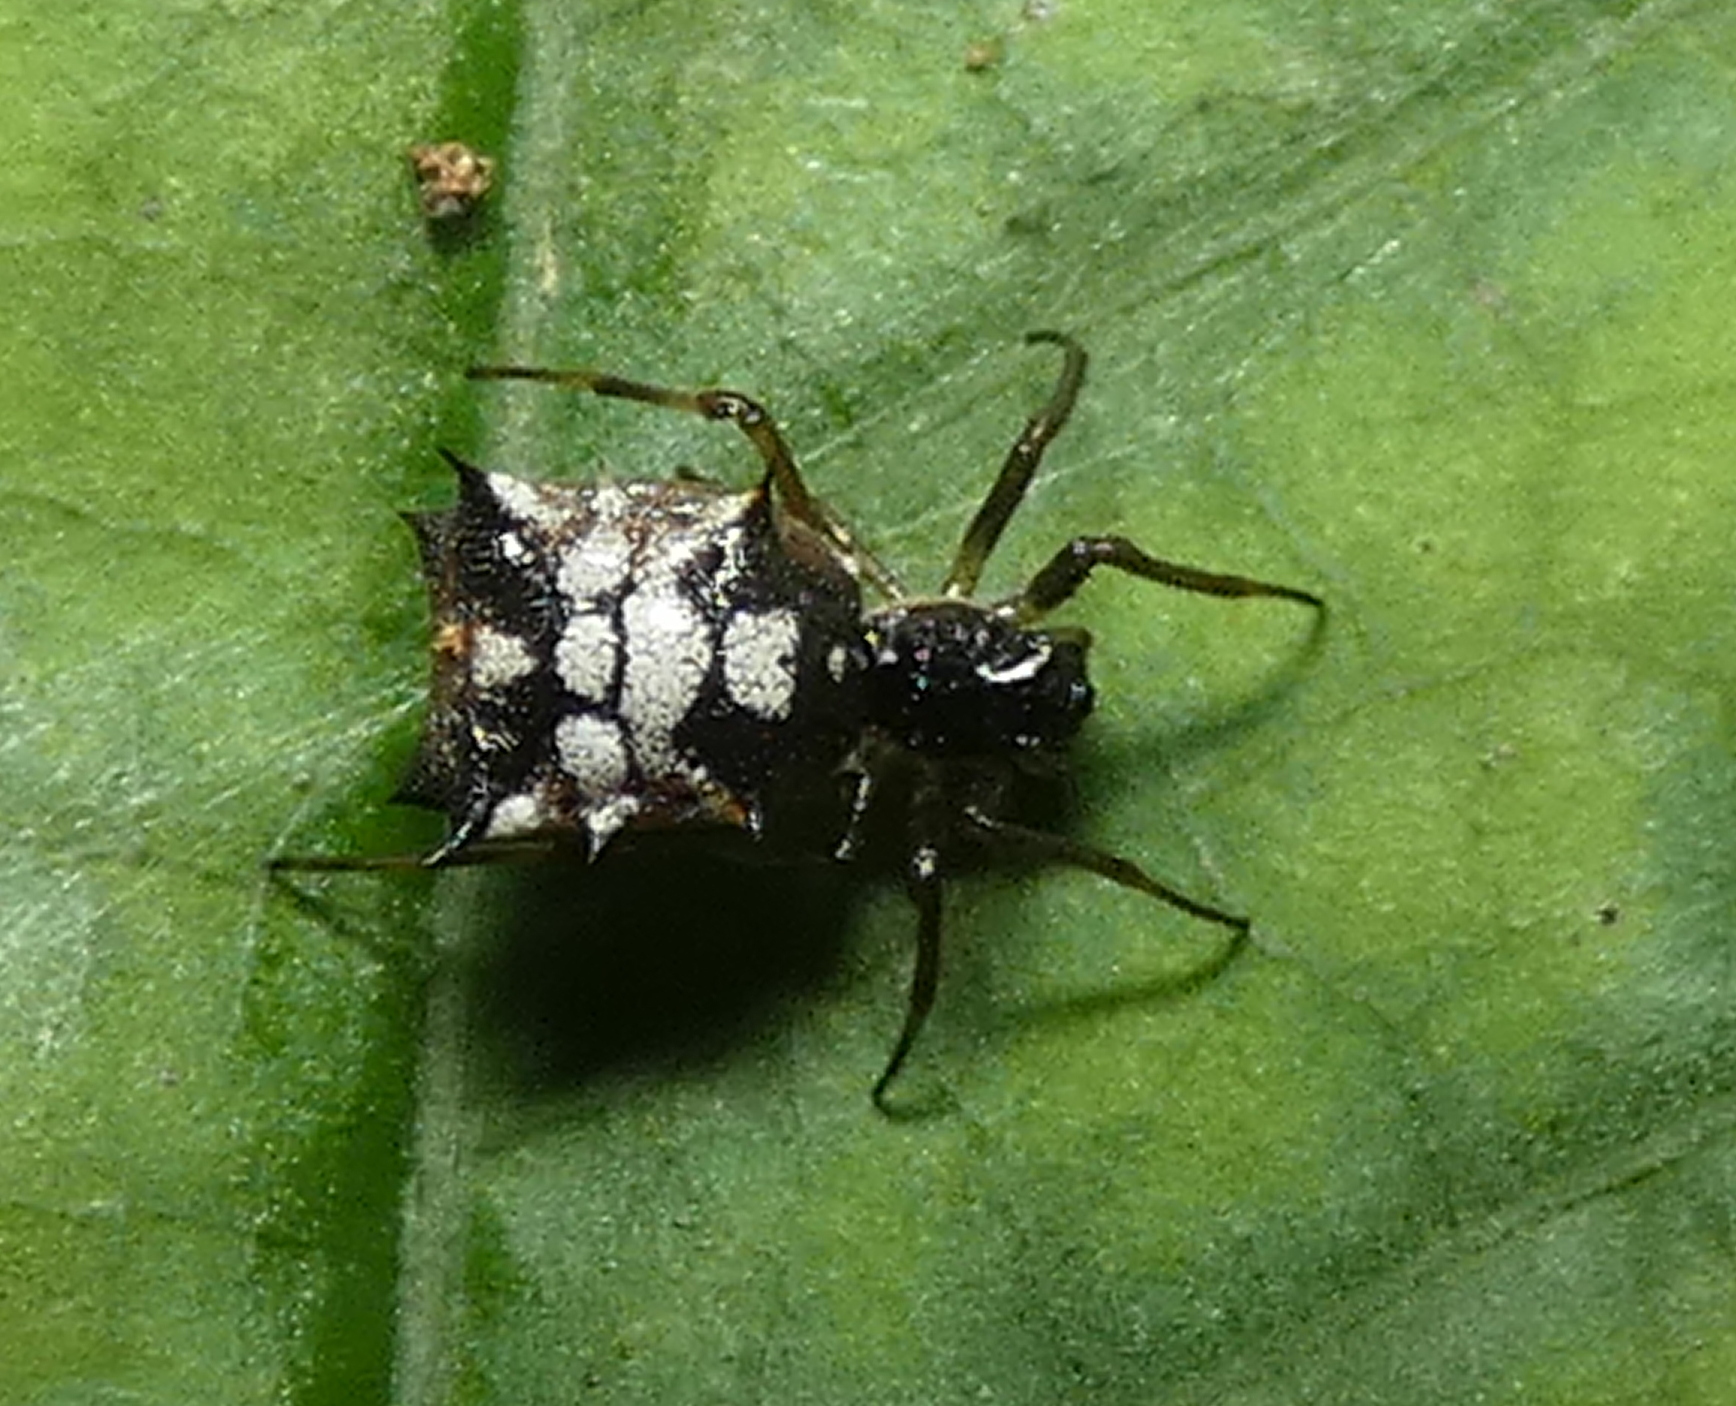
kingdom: Animalia
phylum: Arthropoda
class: Arachnida
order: Araneae
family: Araneidae
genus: Micrathena
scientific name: Micrathena picta
